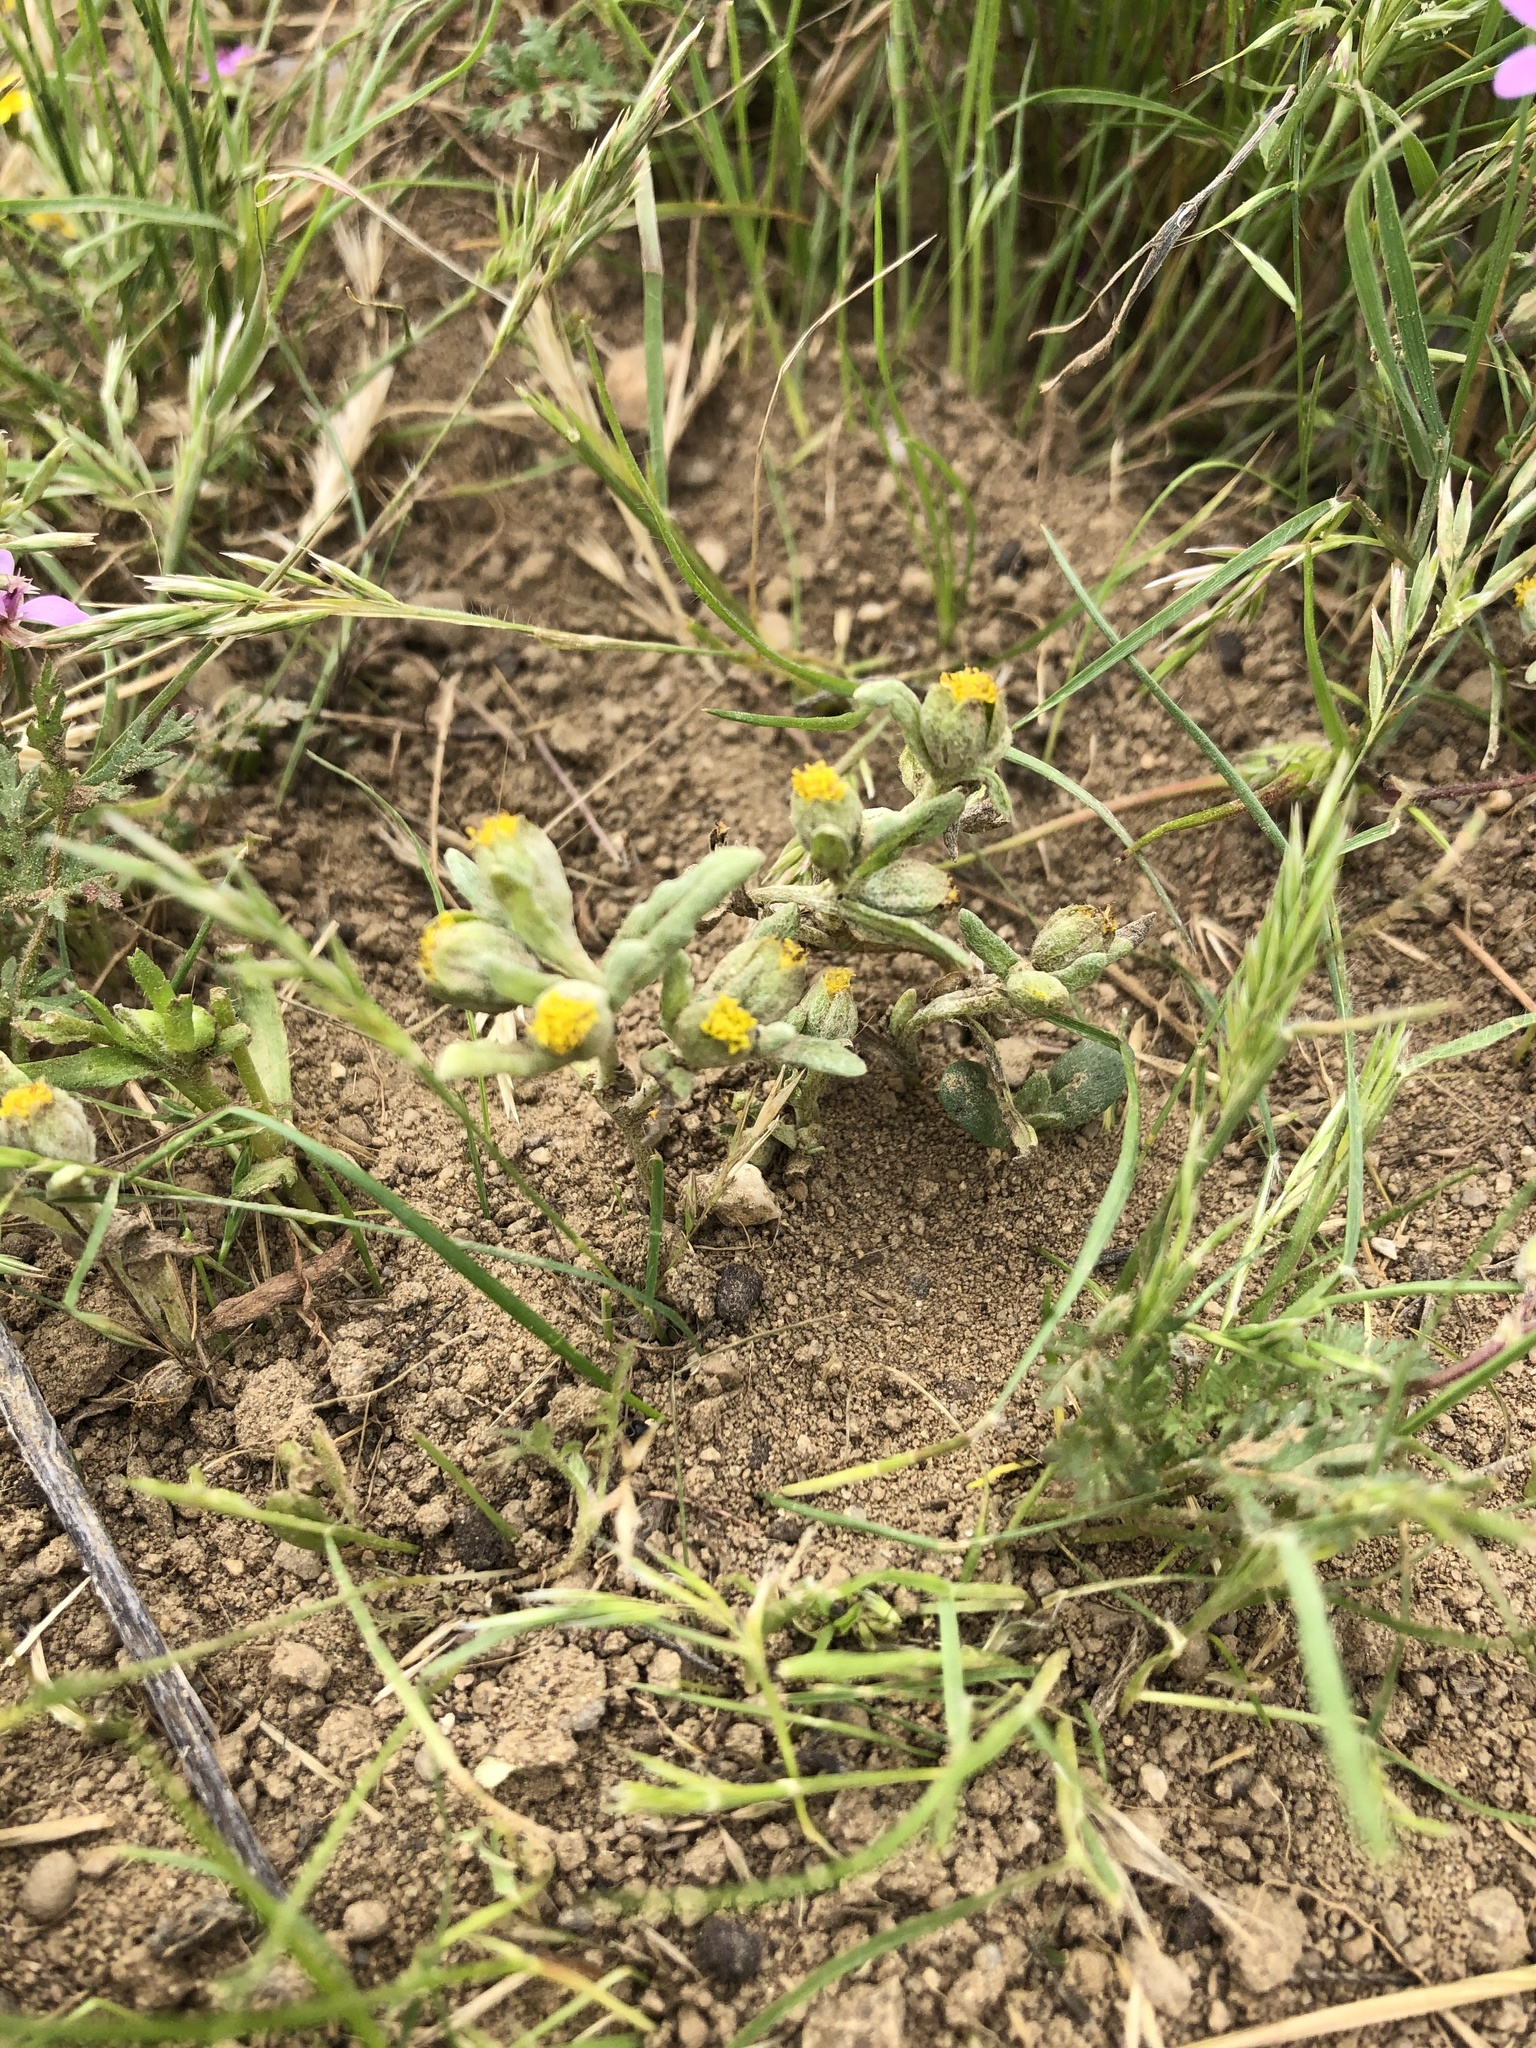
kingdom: Plantae
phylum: Tracheophyta
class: Magnoliopsida
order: Asterales
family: Asteraceae
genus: Monolopia
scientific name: Monolopia congdonii
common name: San joaquin woolly-threads
